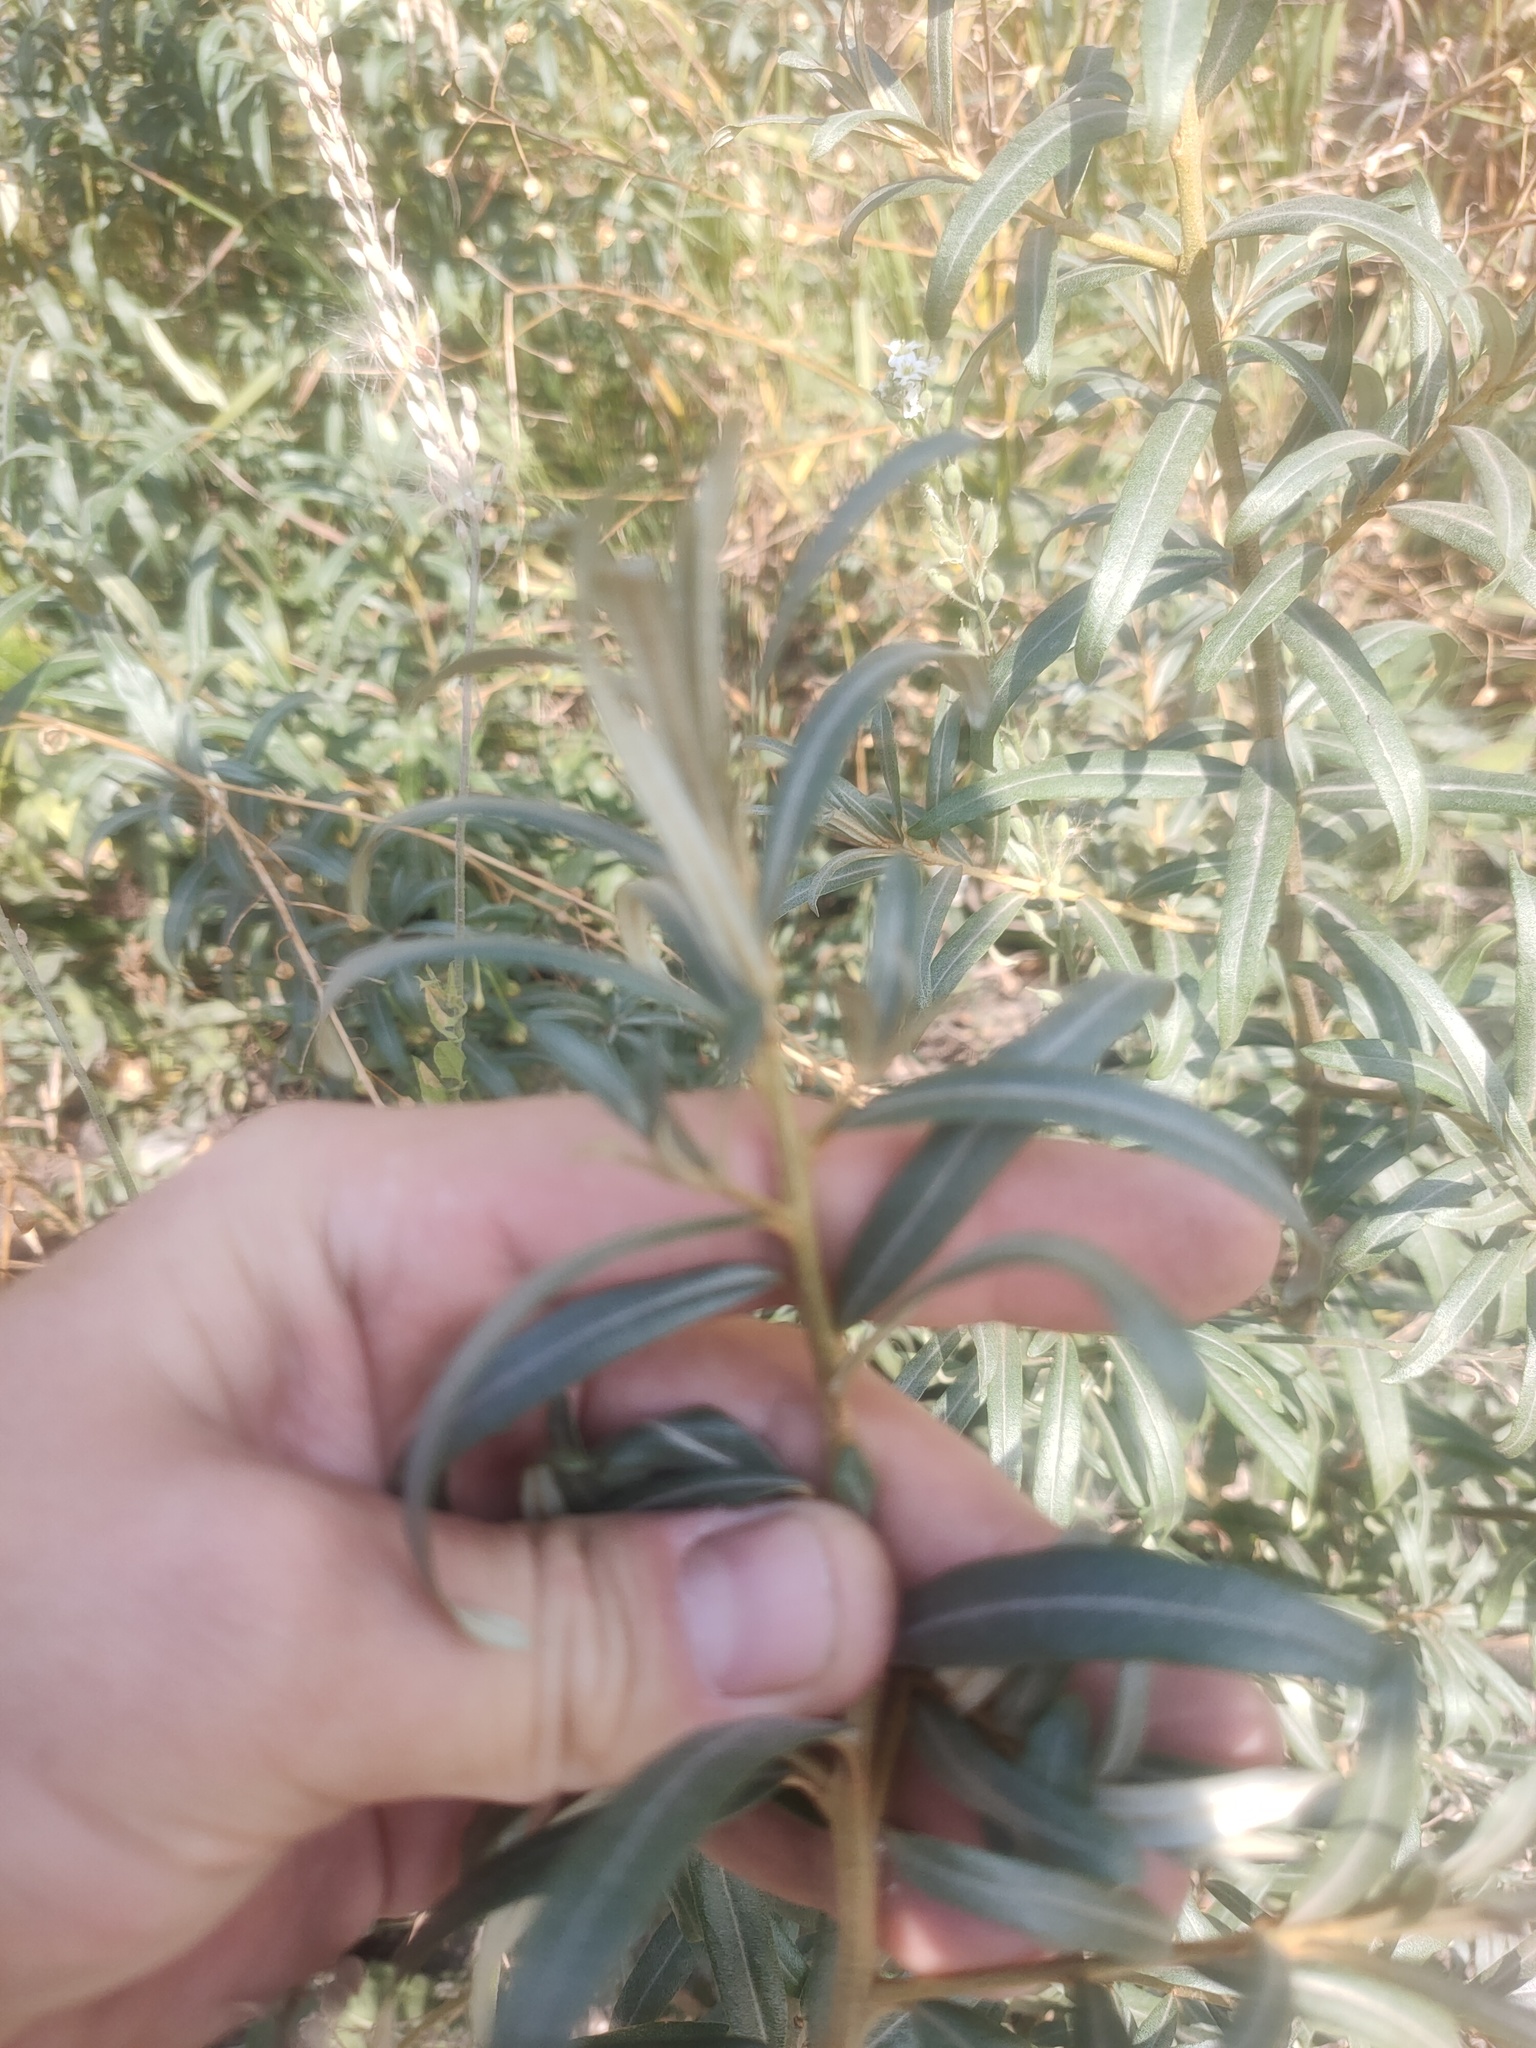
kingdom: Plantae
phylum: Tracheophyta
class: Magnoliopsida
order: Rosales
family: Elaeagnaceae
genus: Hippophae
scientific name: Hippophae rhamnoides
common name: Sea-buckthorn
